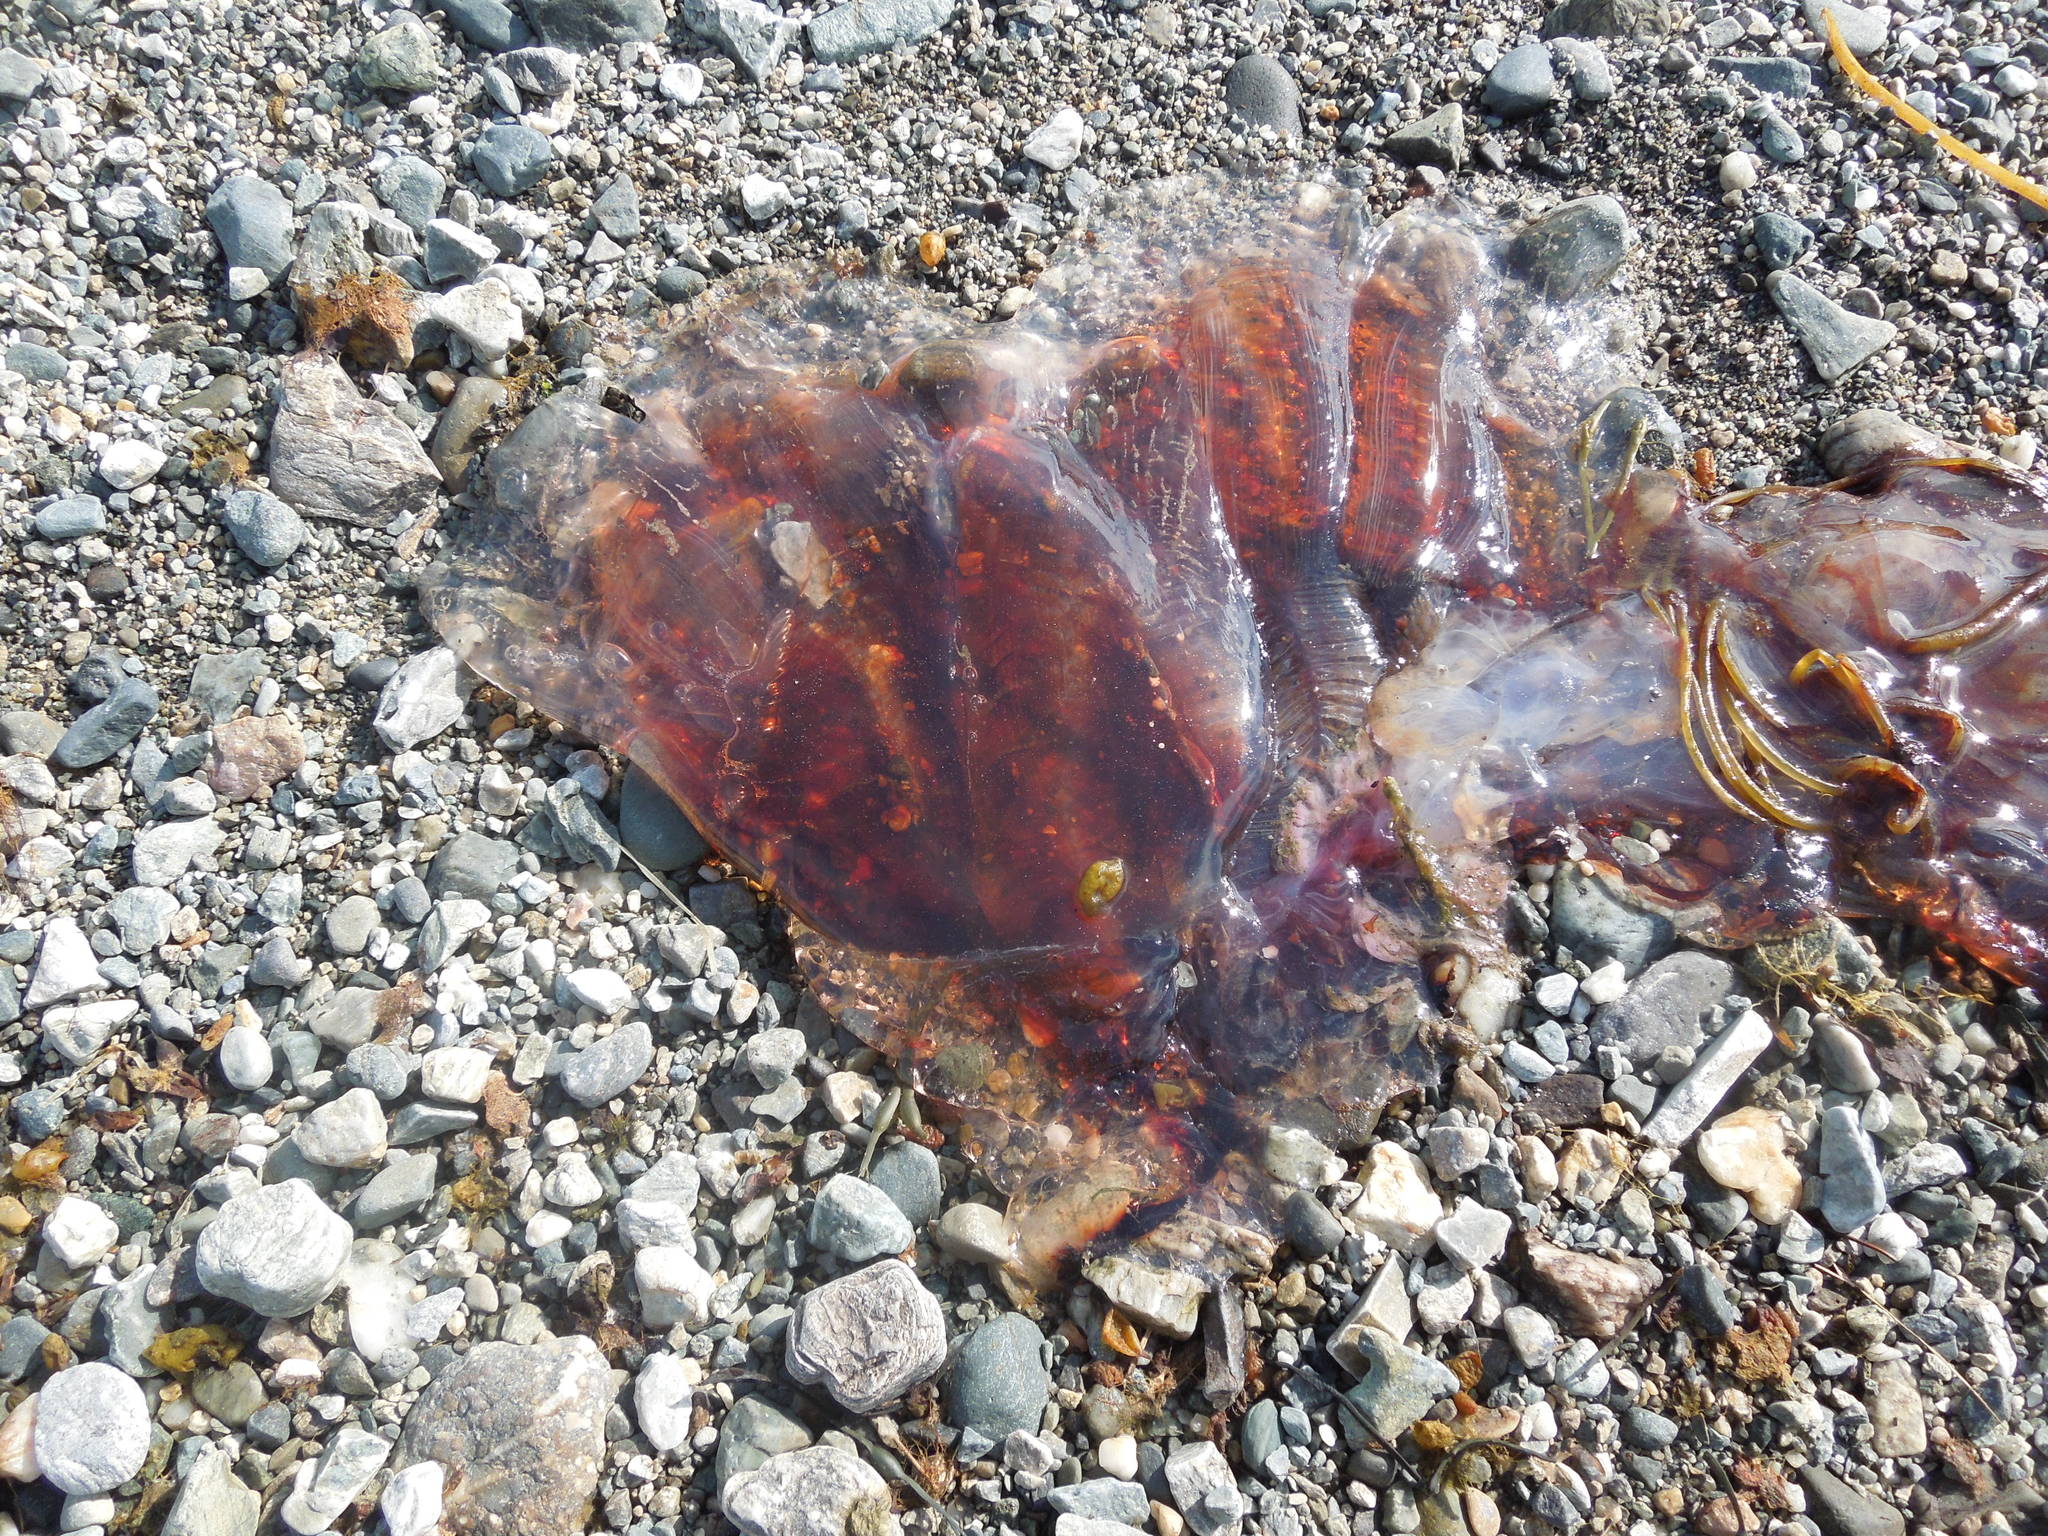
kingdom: Animalia
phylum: Cnidaria
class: Scyphozoa
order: Semaeostomeae
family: Cyaneidae
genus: Cyanea
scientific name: Cyanea
